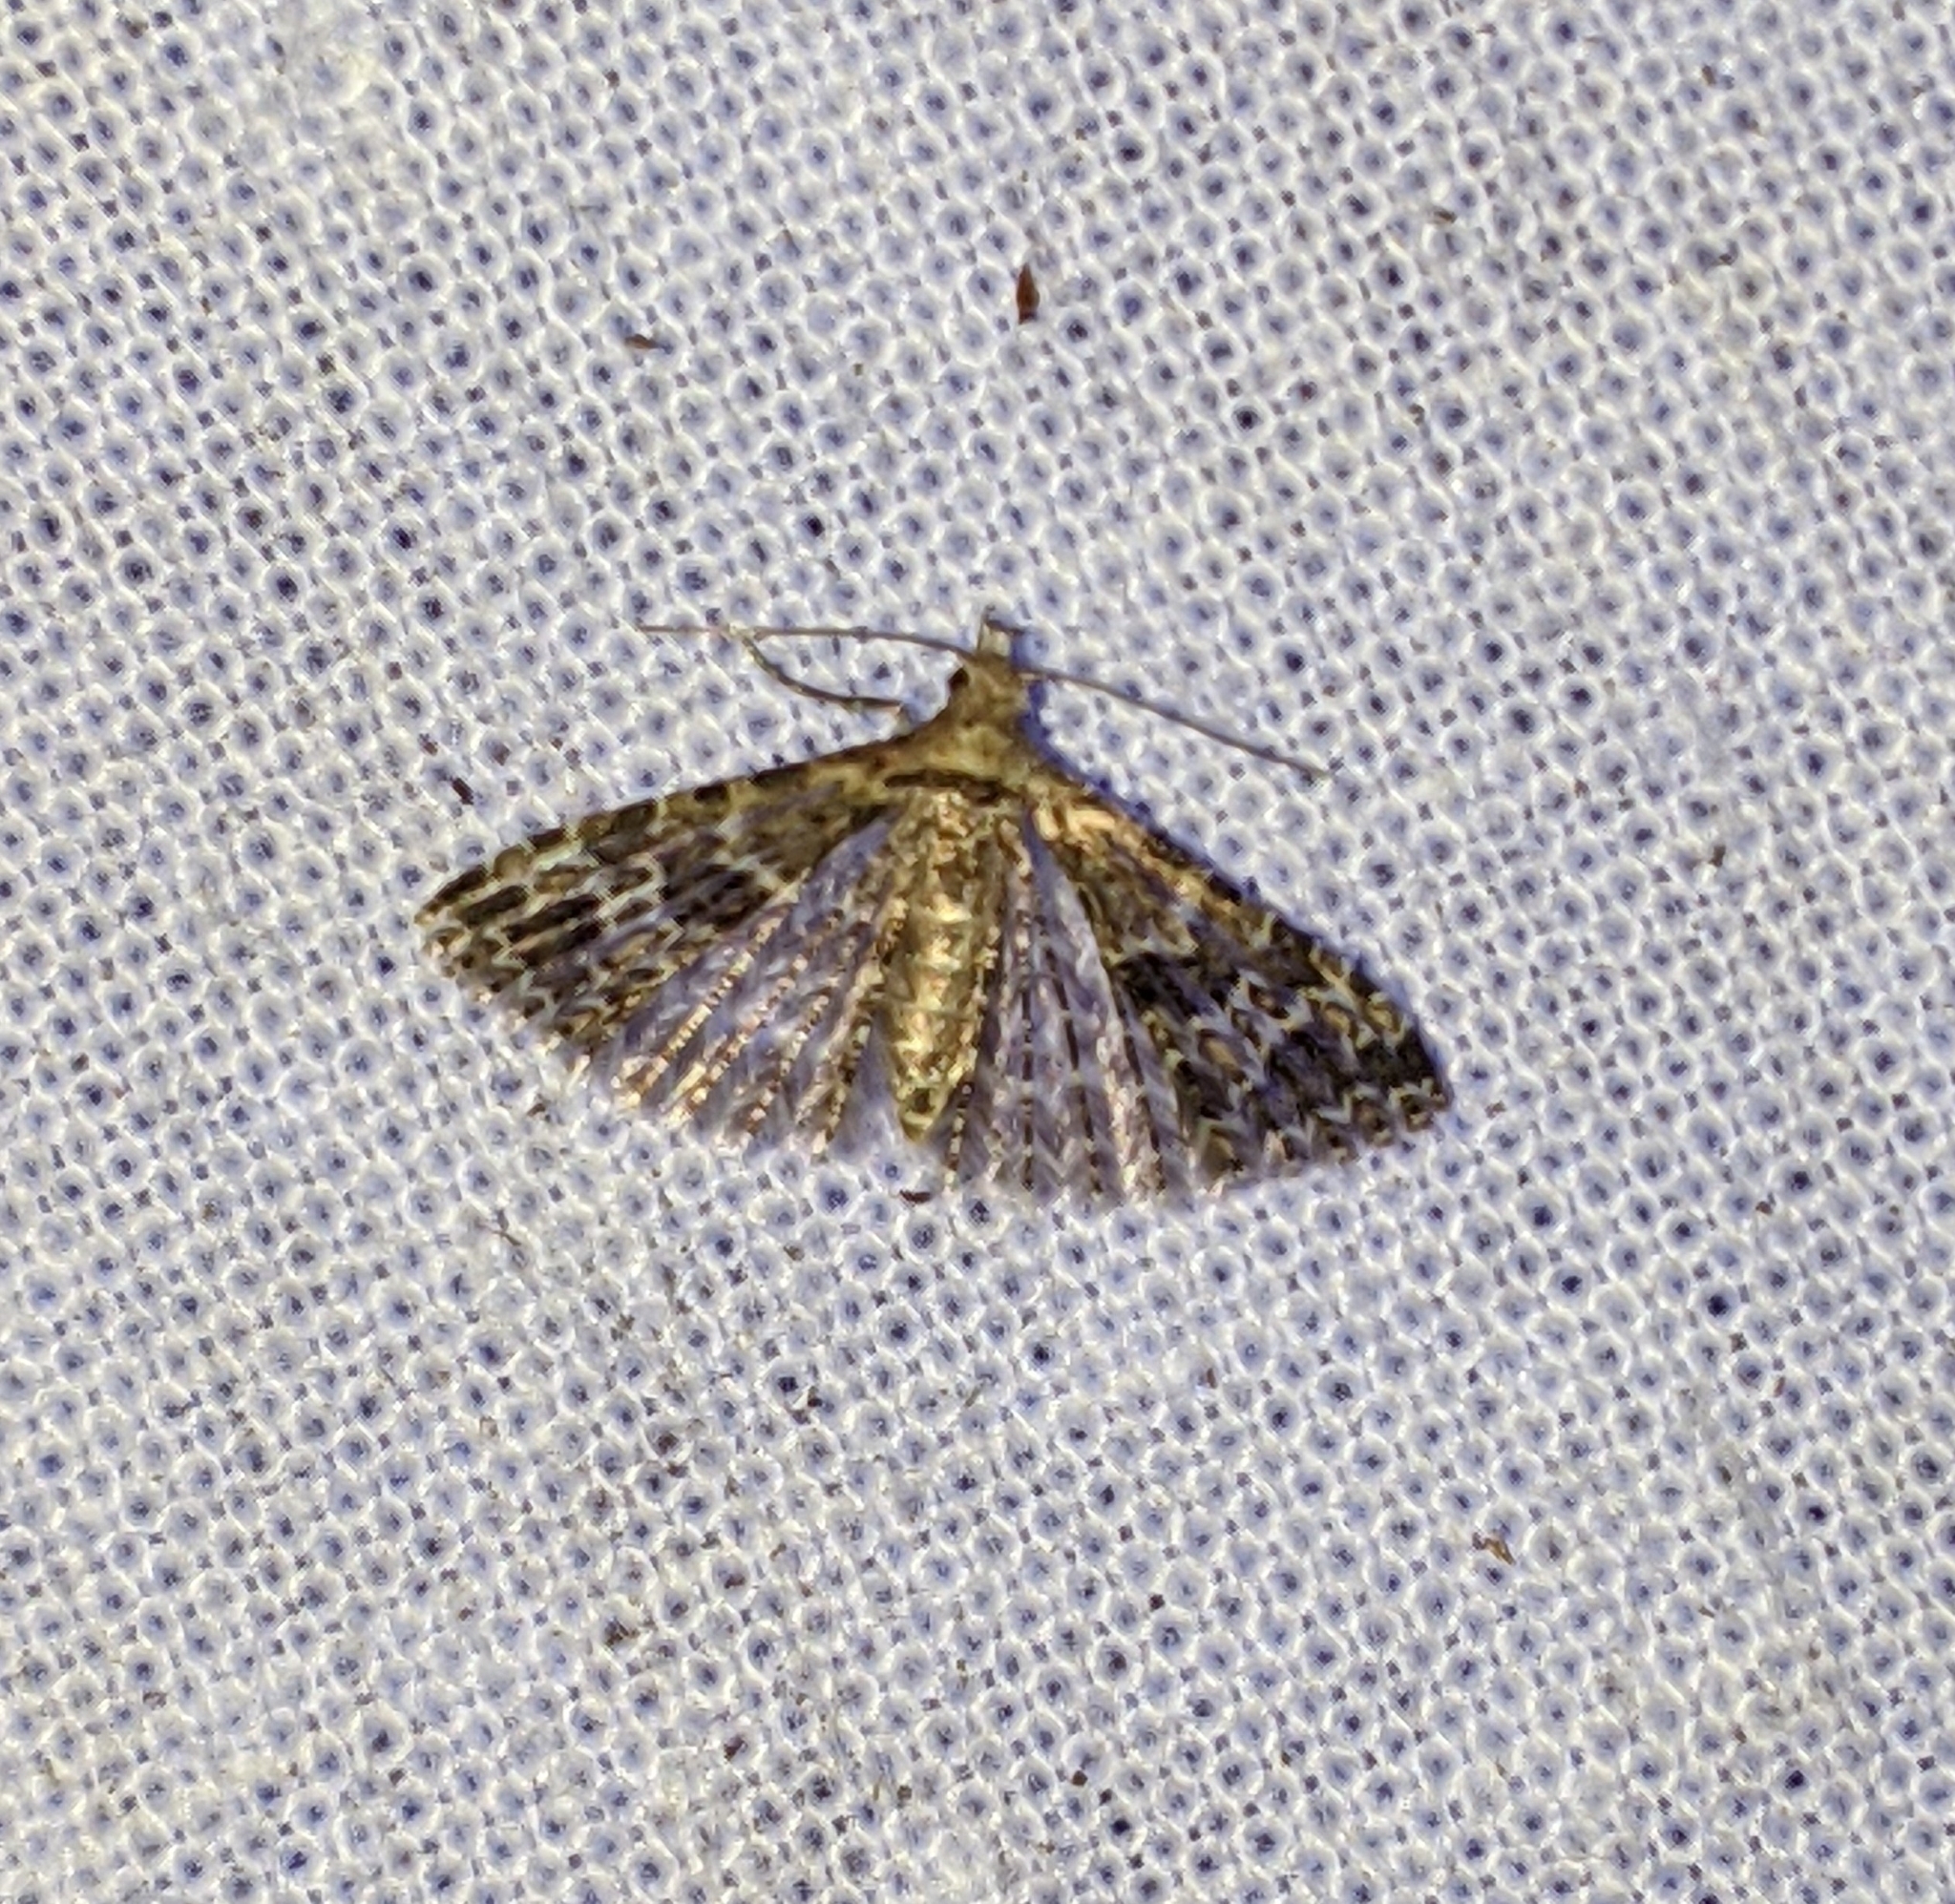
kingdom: Animalia
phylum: Arthropoda
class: Insecta
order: Lepidoptera
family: Alucitidae
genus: Alucita
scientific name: Alucita montana
